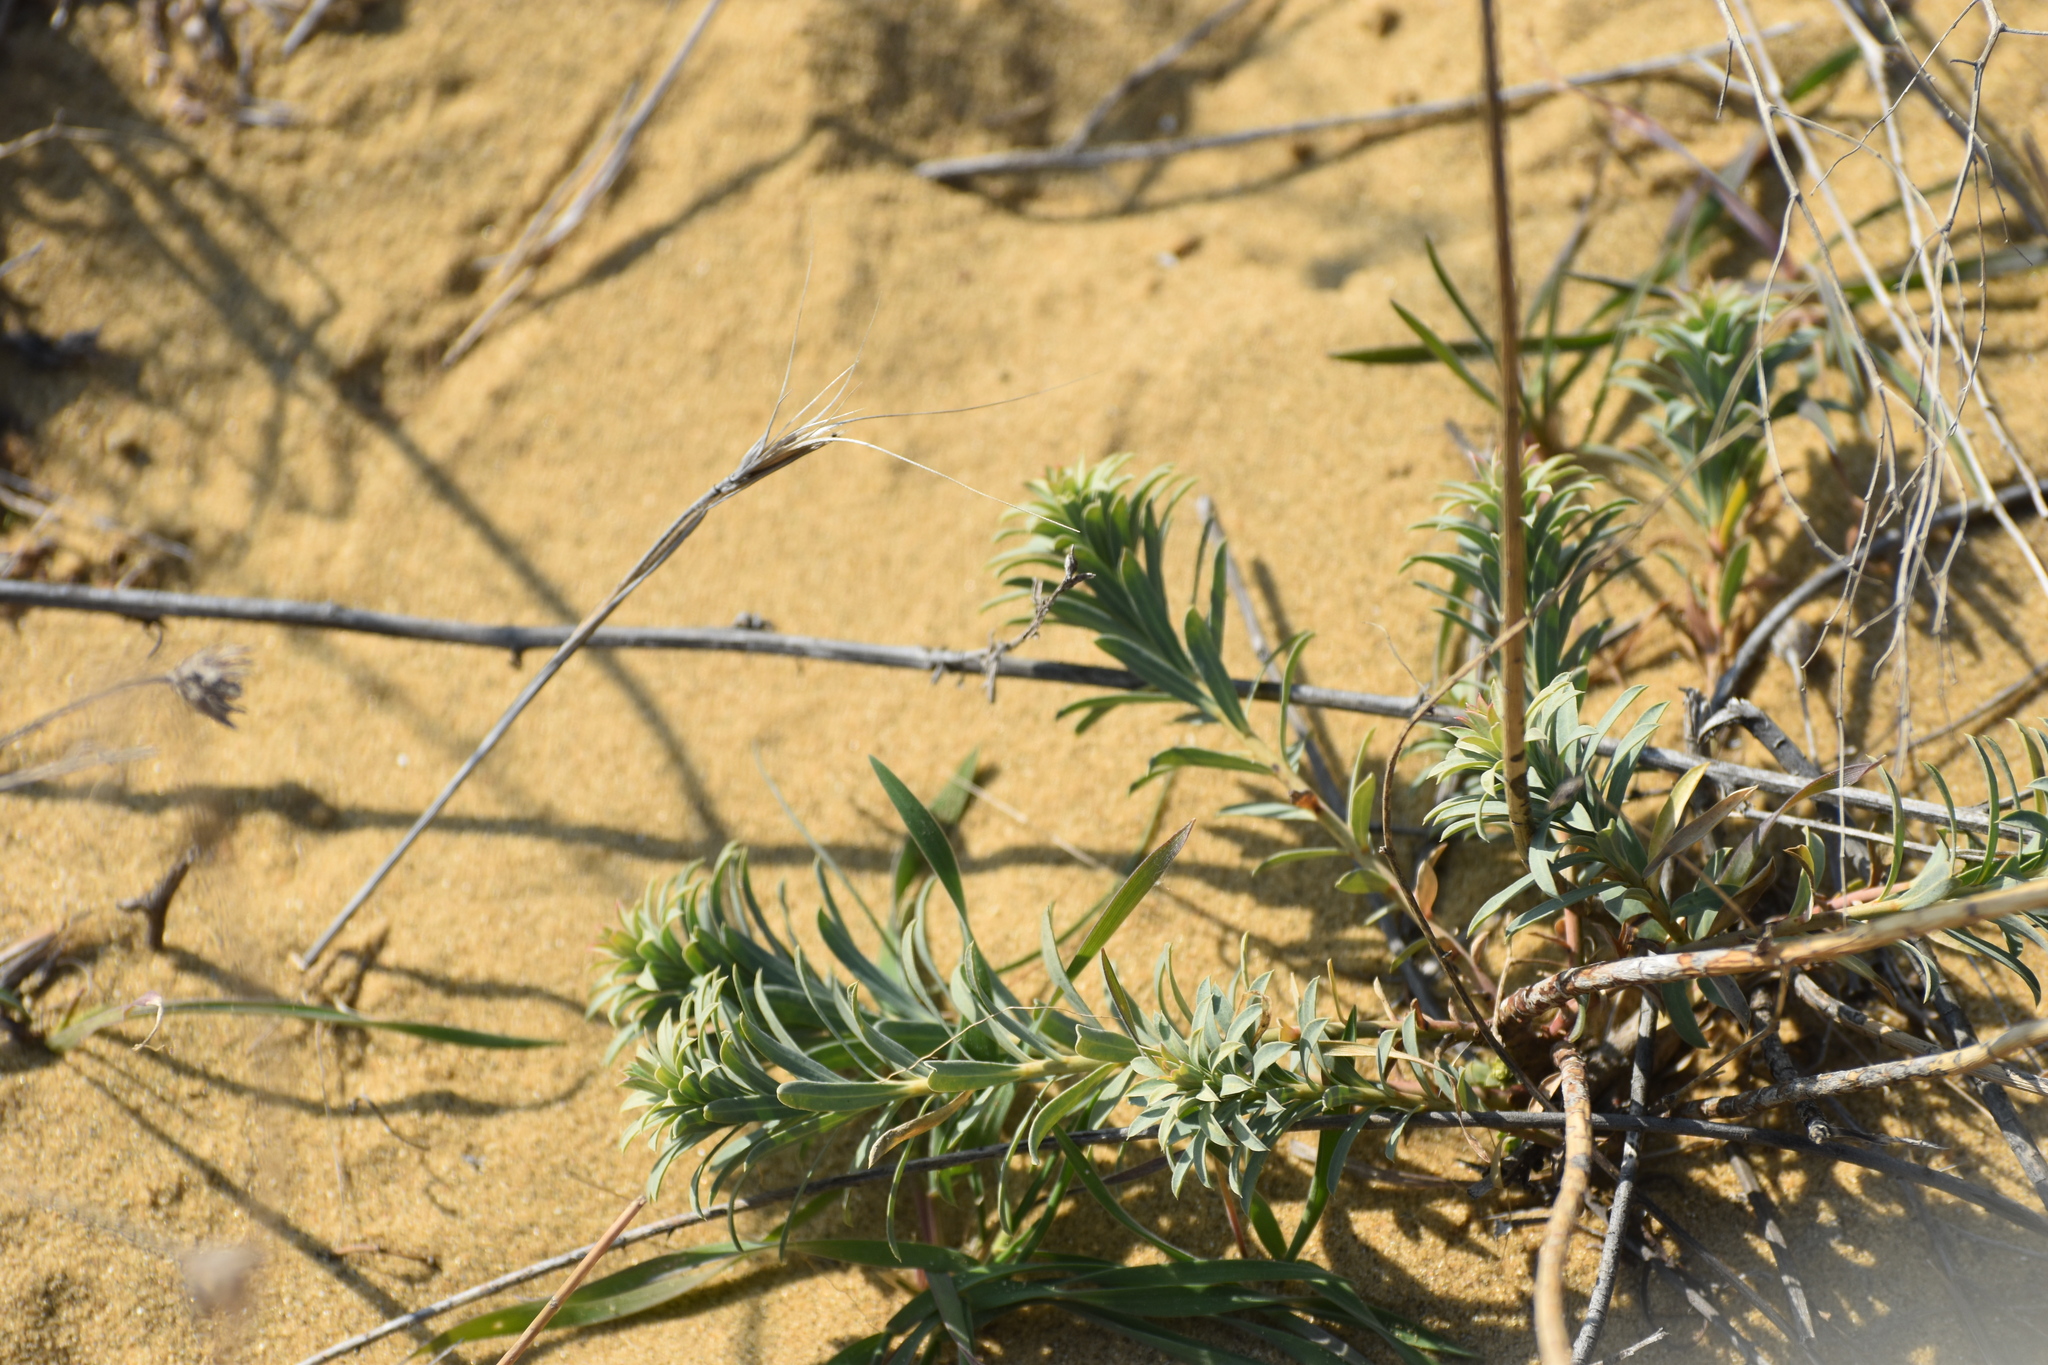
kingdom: Plantae
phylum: Tracheophyta
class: Magnoliopsida
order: Malpighiales
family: Euphorbiaceae
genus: Euphorbia
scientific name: Euphorbia seguieriana
